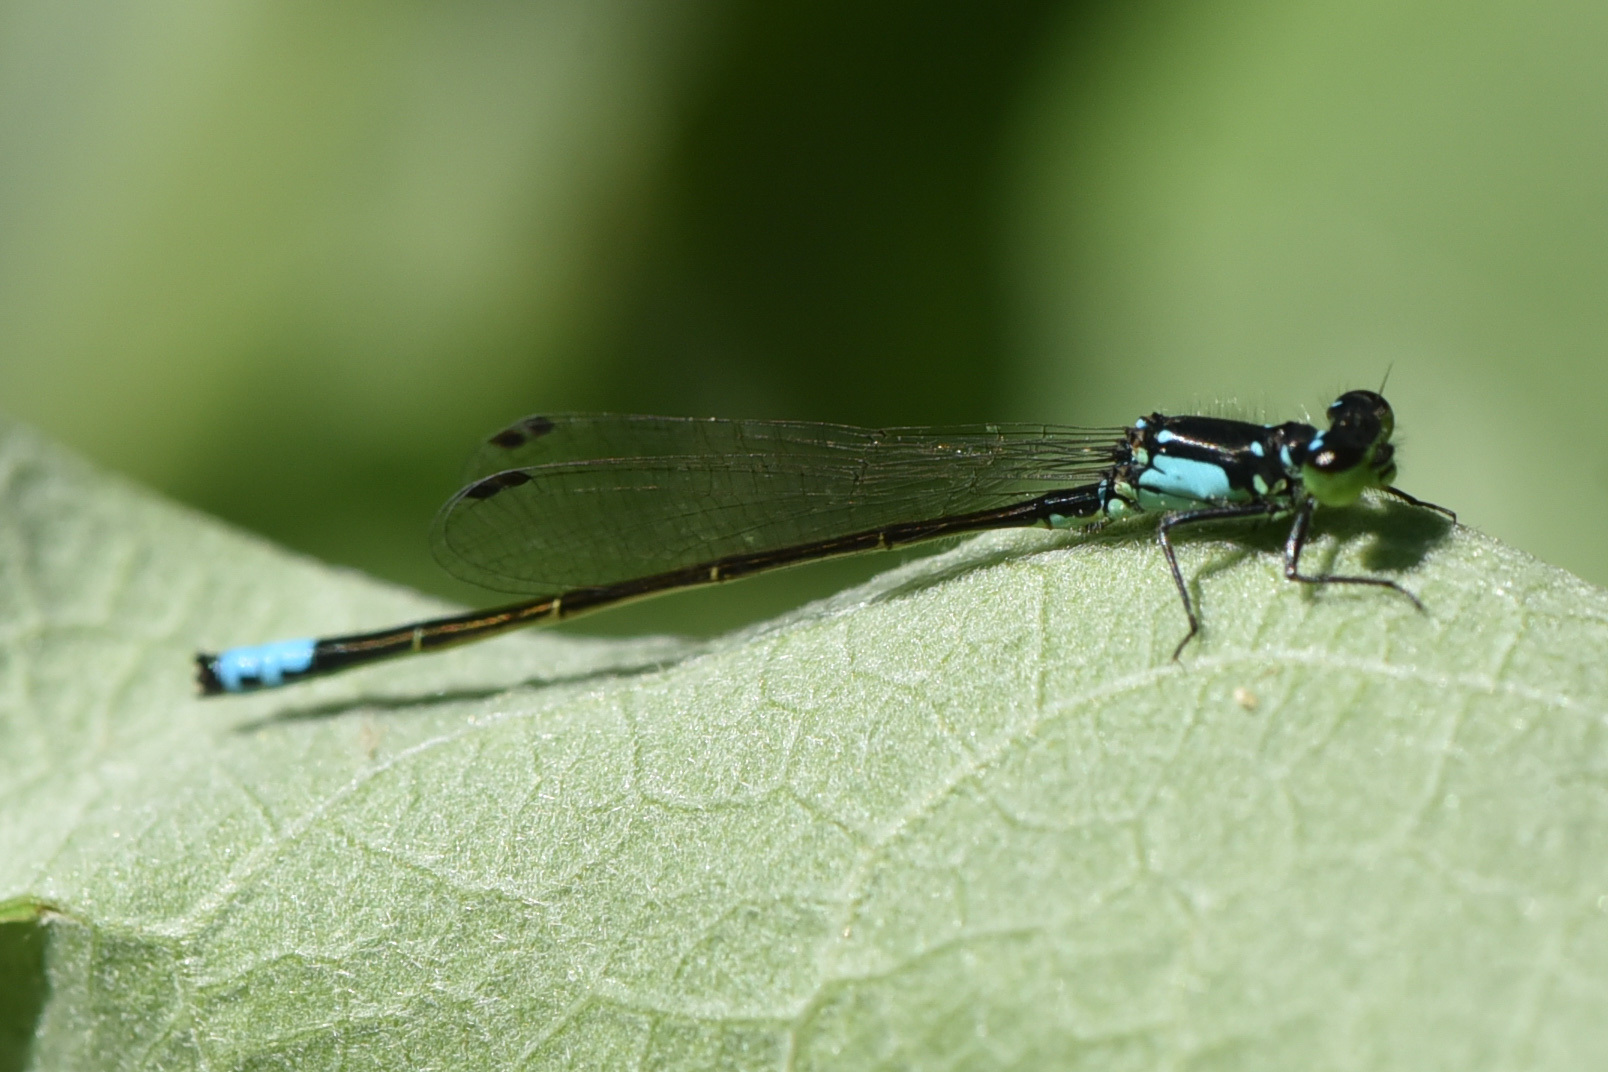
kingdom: Animalia
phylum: Arthropoda
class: Insecta
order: Odonata
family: Coenagrionidae
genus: Ischnura
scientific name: Ischnura cervula
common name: Pacific forktail
